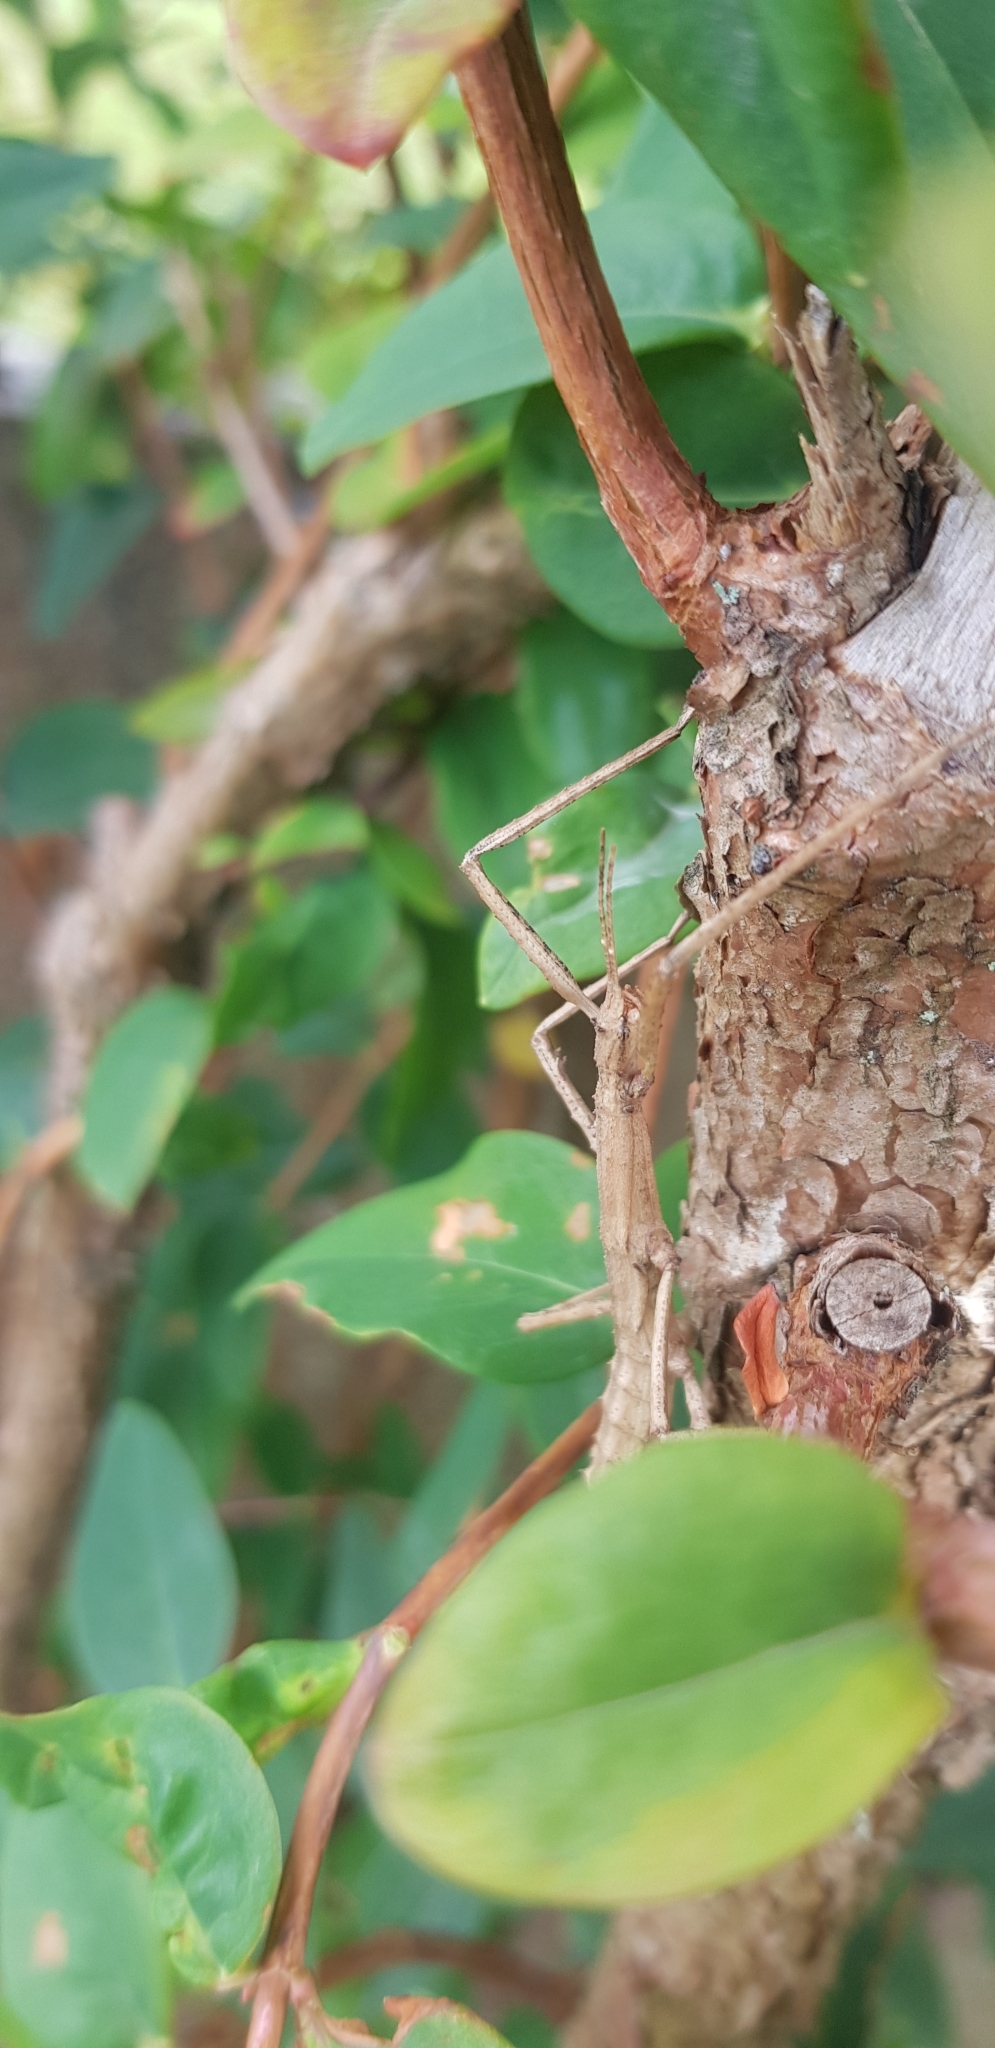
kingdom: Animalia
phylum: Arthropoda
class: Insecta
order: Phasmida
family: Phasmatidae
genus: Niveaphasma
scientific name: Niveaphasma annulatum
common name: Hutton's stick insect
